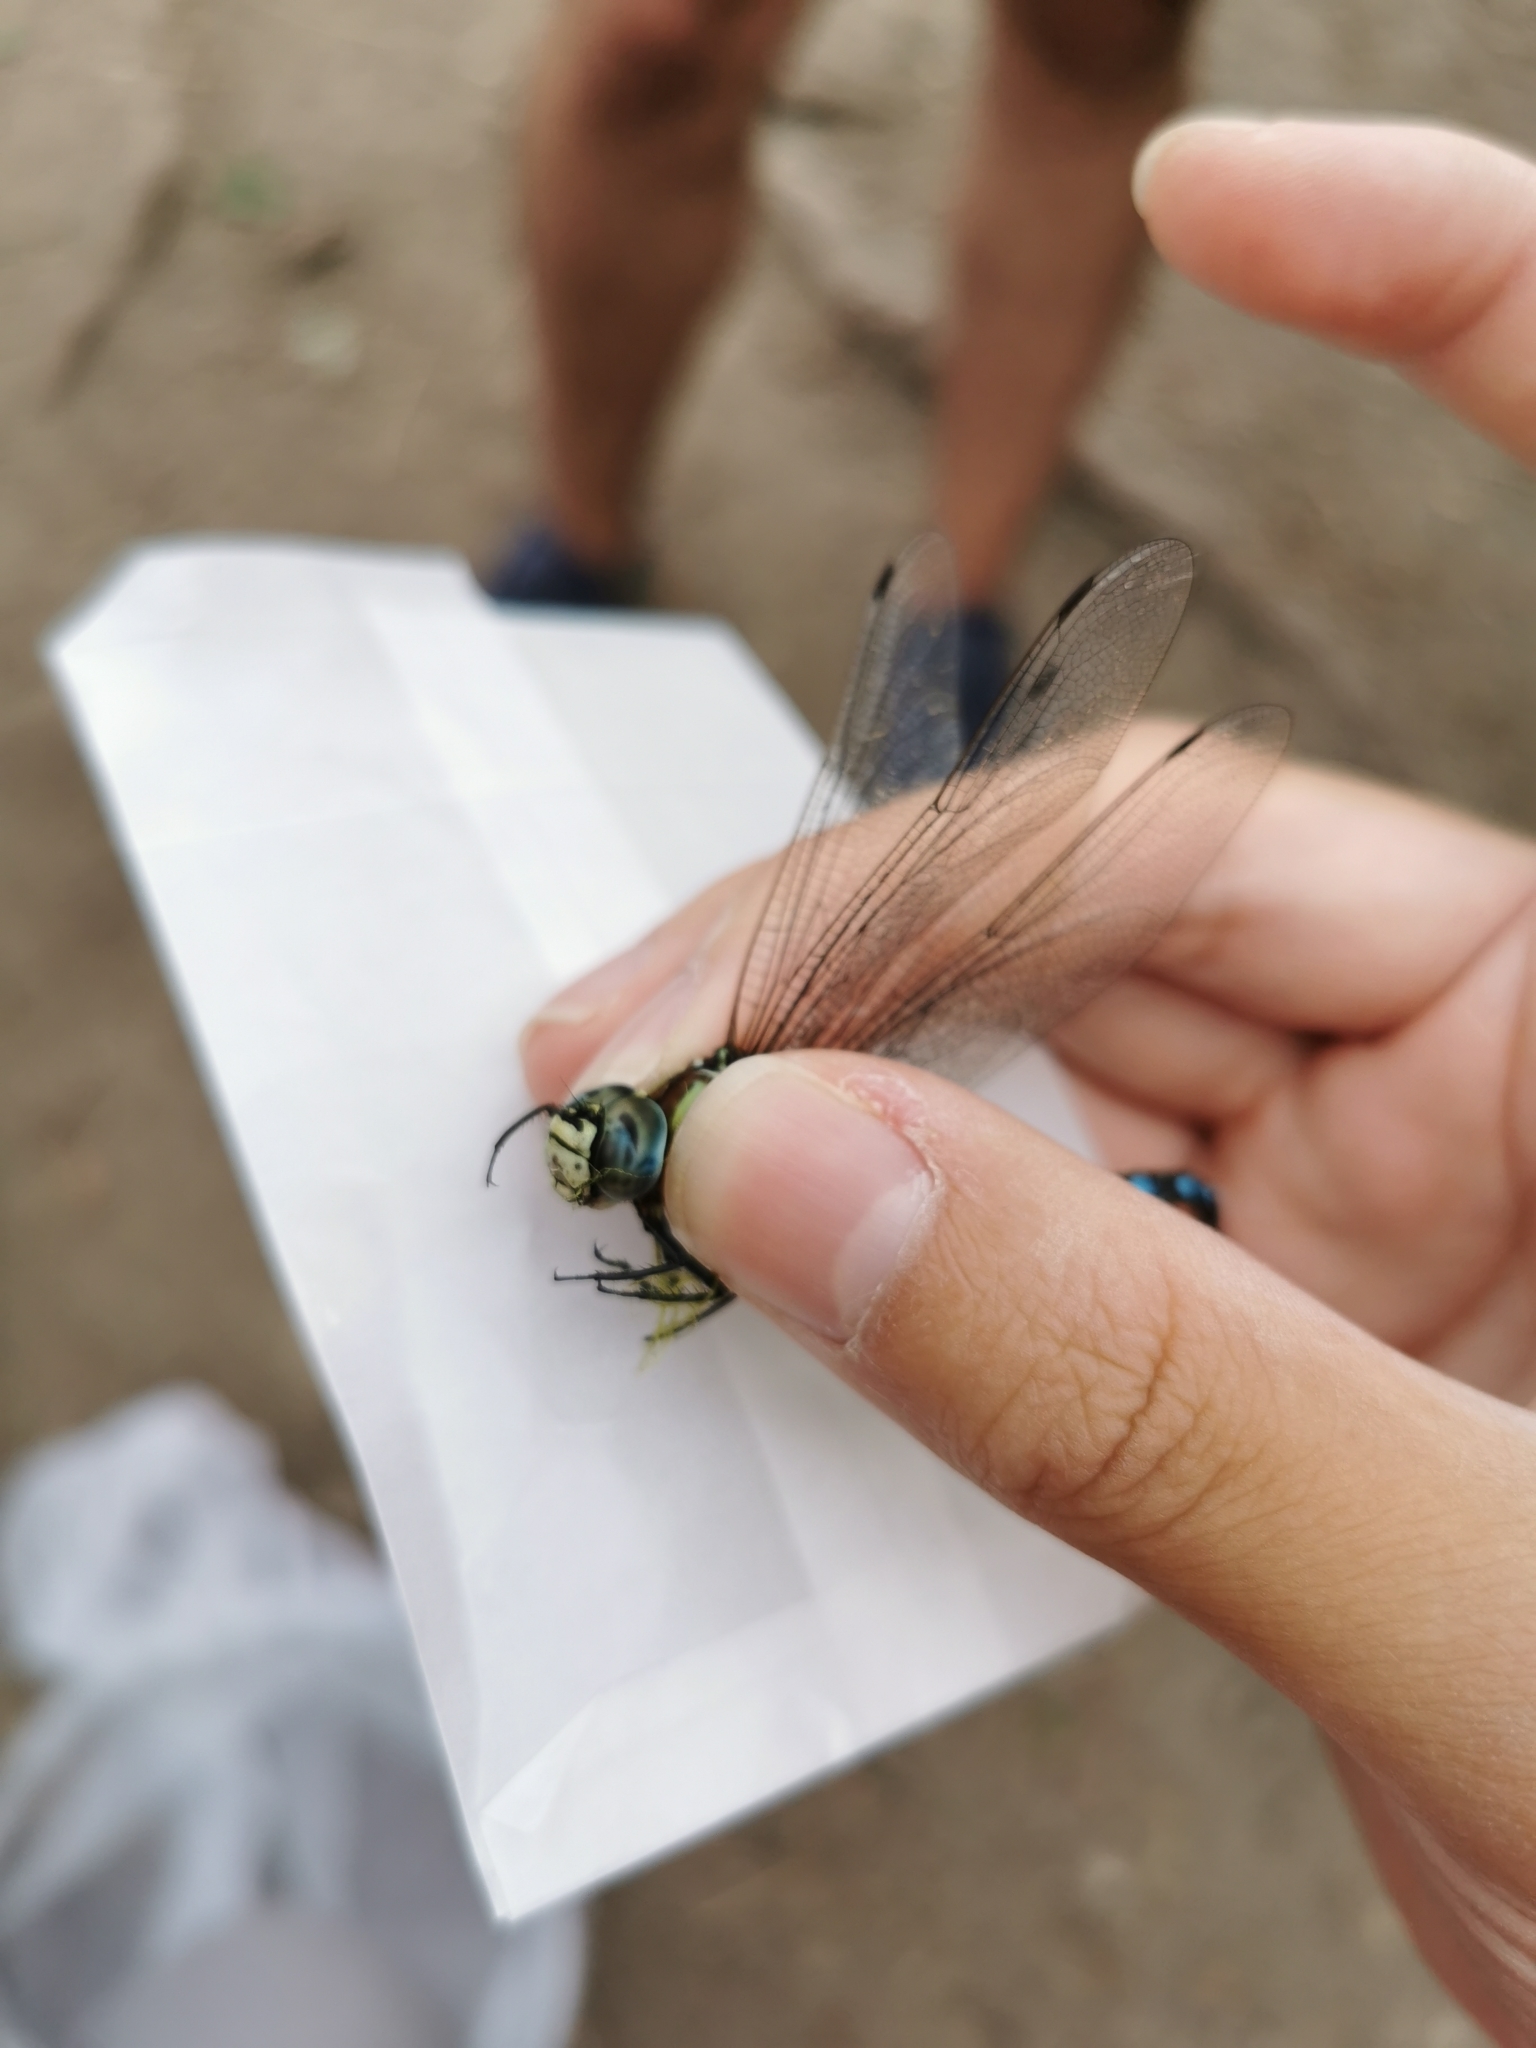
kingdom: Animalia
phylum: Arthropoda
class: Insecta
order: Odonata
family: Aeshnidae
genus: Aeshna
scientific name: Aeshna palmata
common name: Paddle-tailed darner
